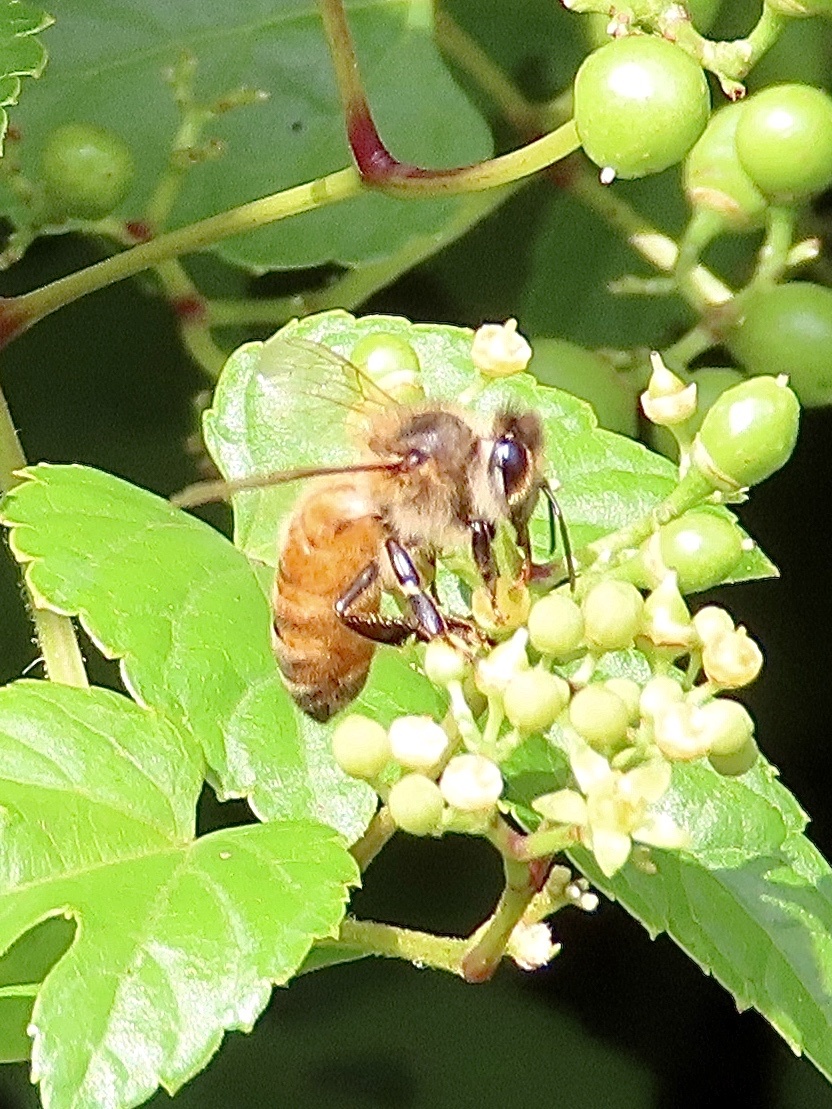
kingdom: Animalia
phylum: Arthropoda
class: Insecta
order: Hymenoptera
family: Apidae
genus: Apis
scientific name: Apis mellifera
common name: Honey bee
